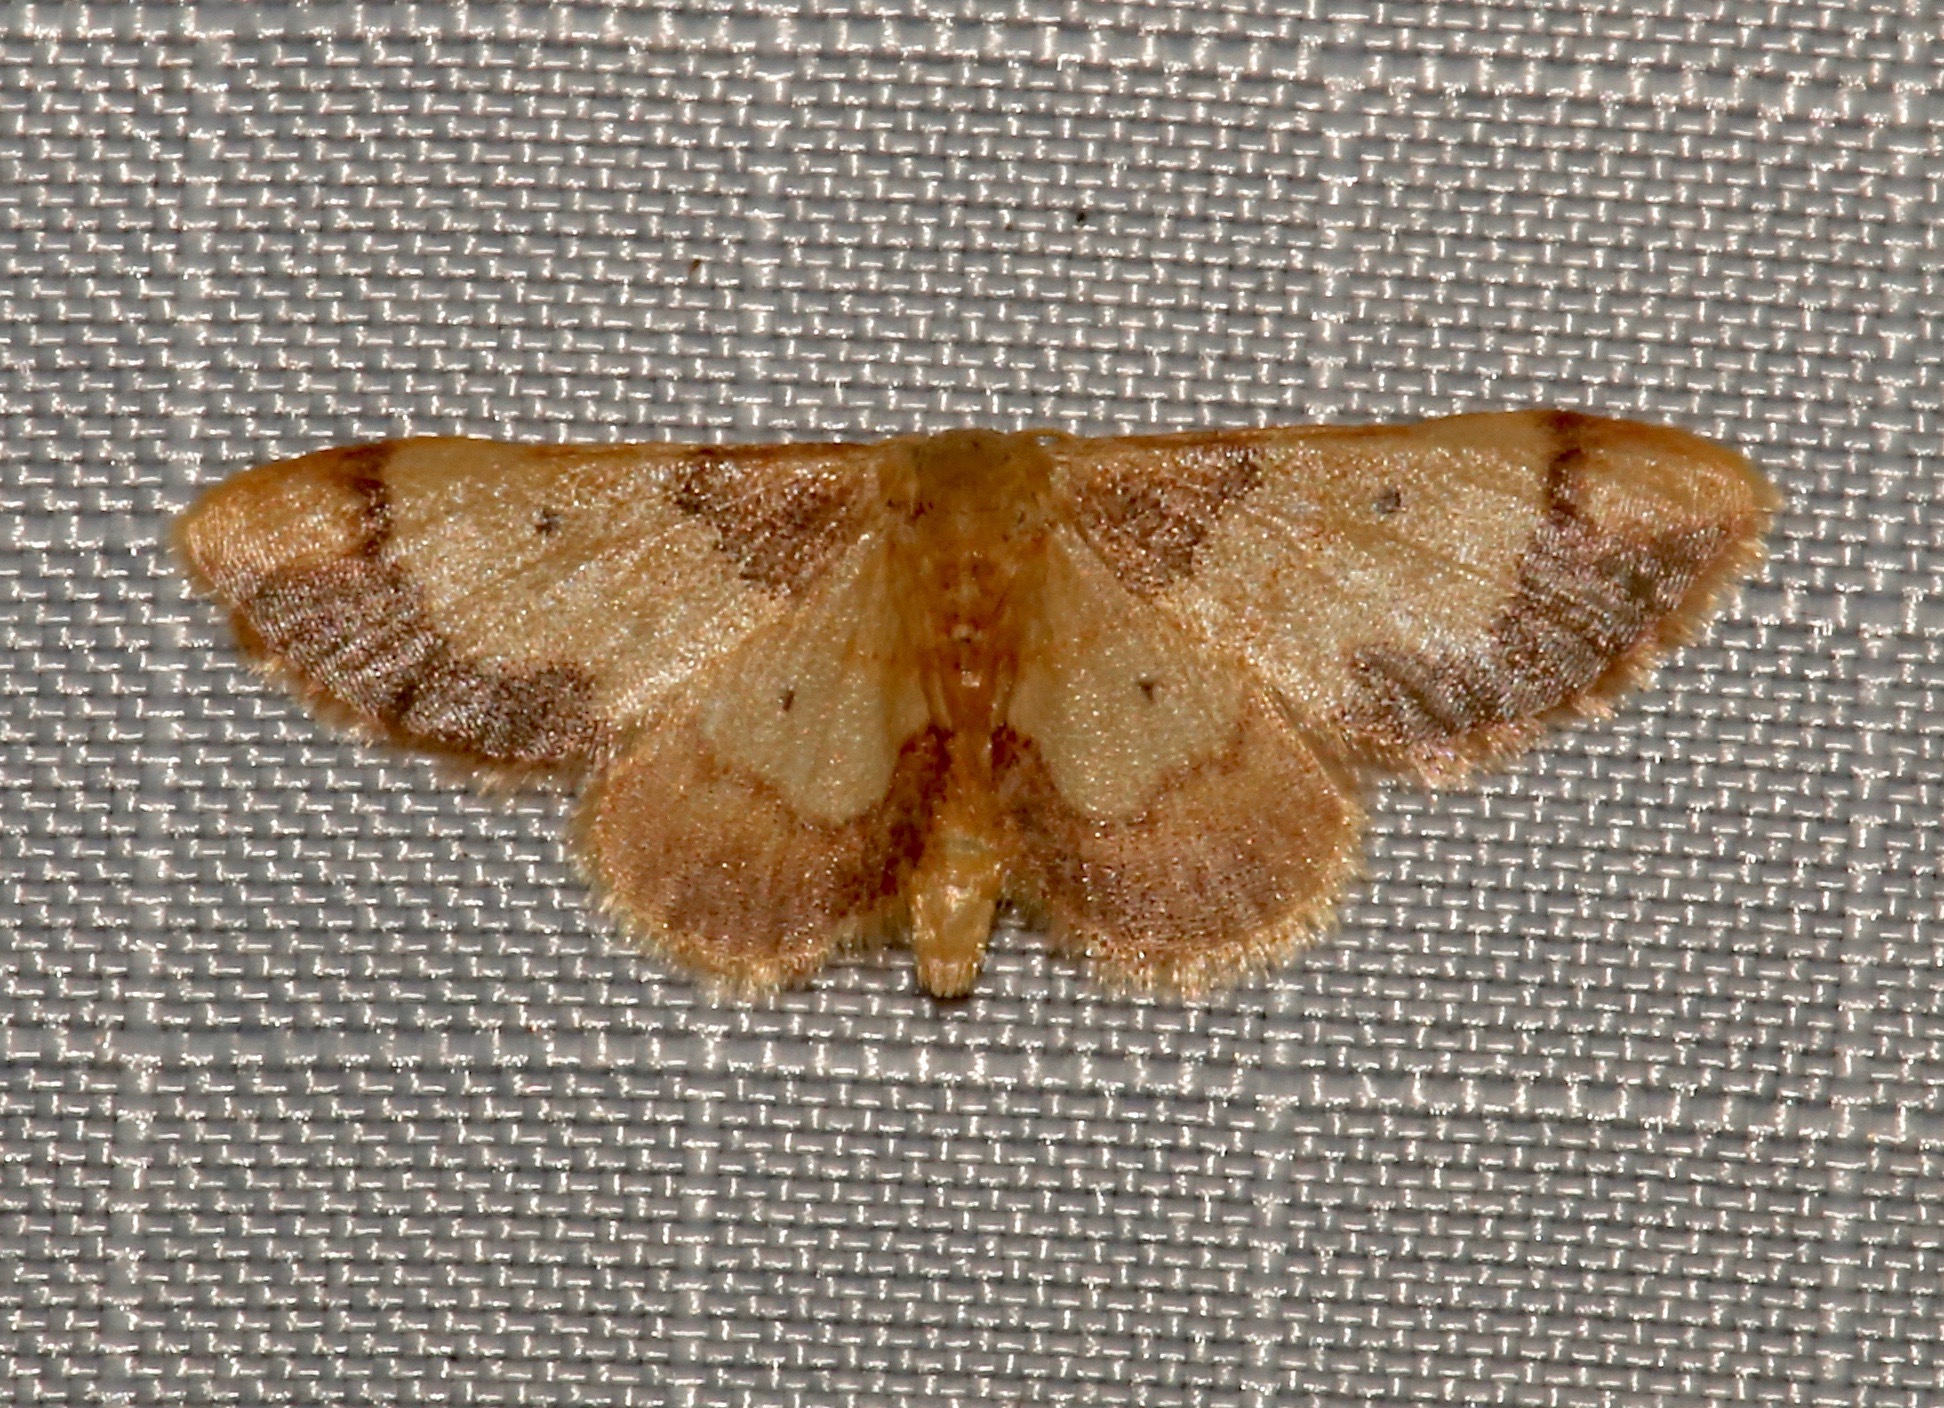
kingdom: Animalia
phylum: Arthropoda
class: Insecta
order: Lepidoptera
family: Geometridae
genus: Idaea
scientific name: Idaea demissaria
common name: Red-bordered wave
